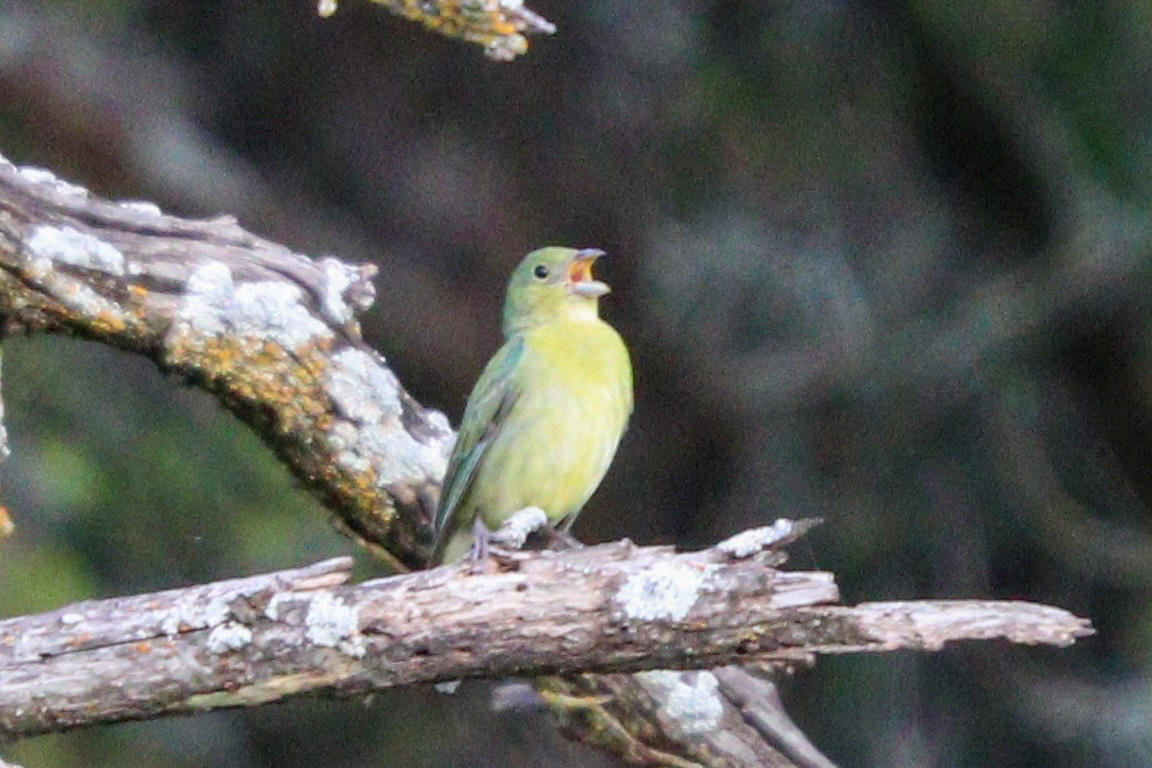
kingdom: Animalia
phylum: Chordata
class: Aves
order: Passeriformes
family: Cardinalidae
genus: Passerina
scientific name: Passerina ciris
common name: Painted bunting
